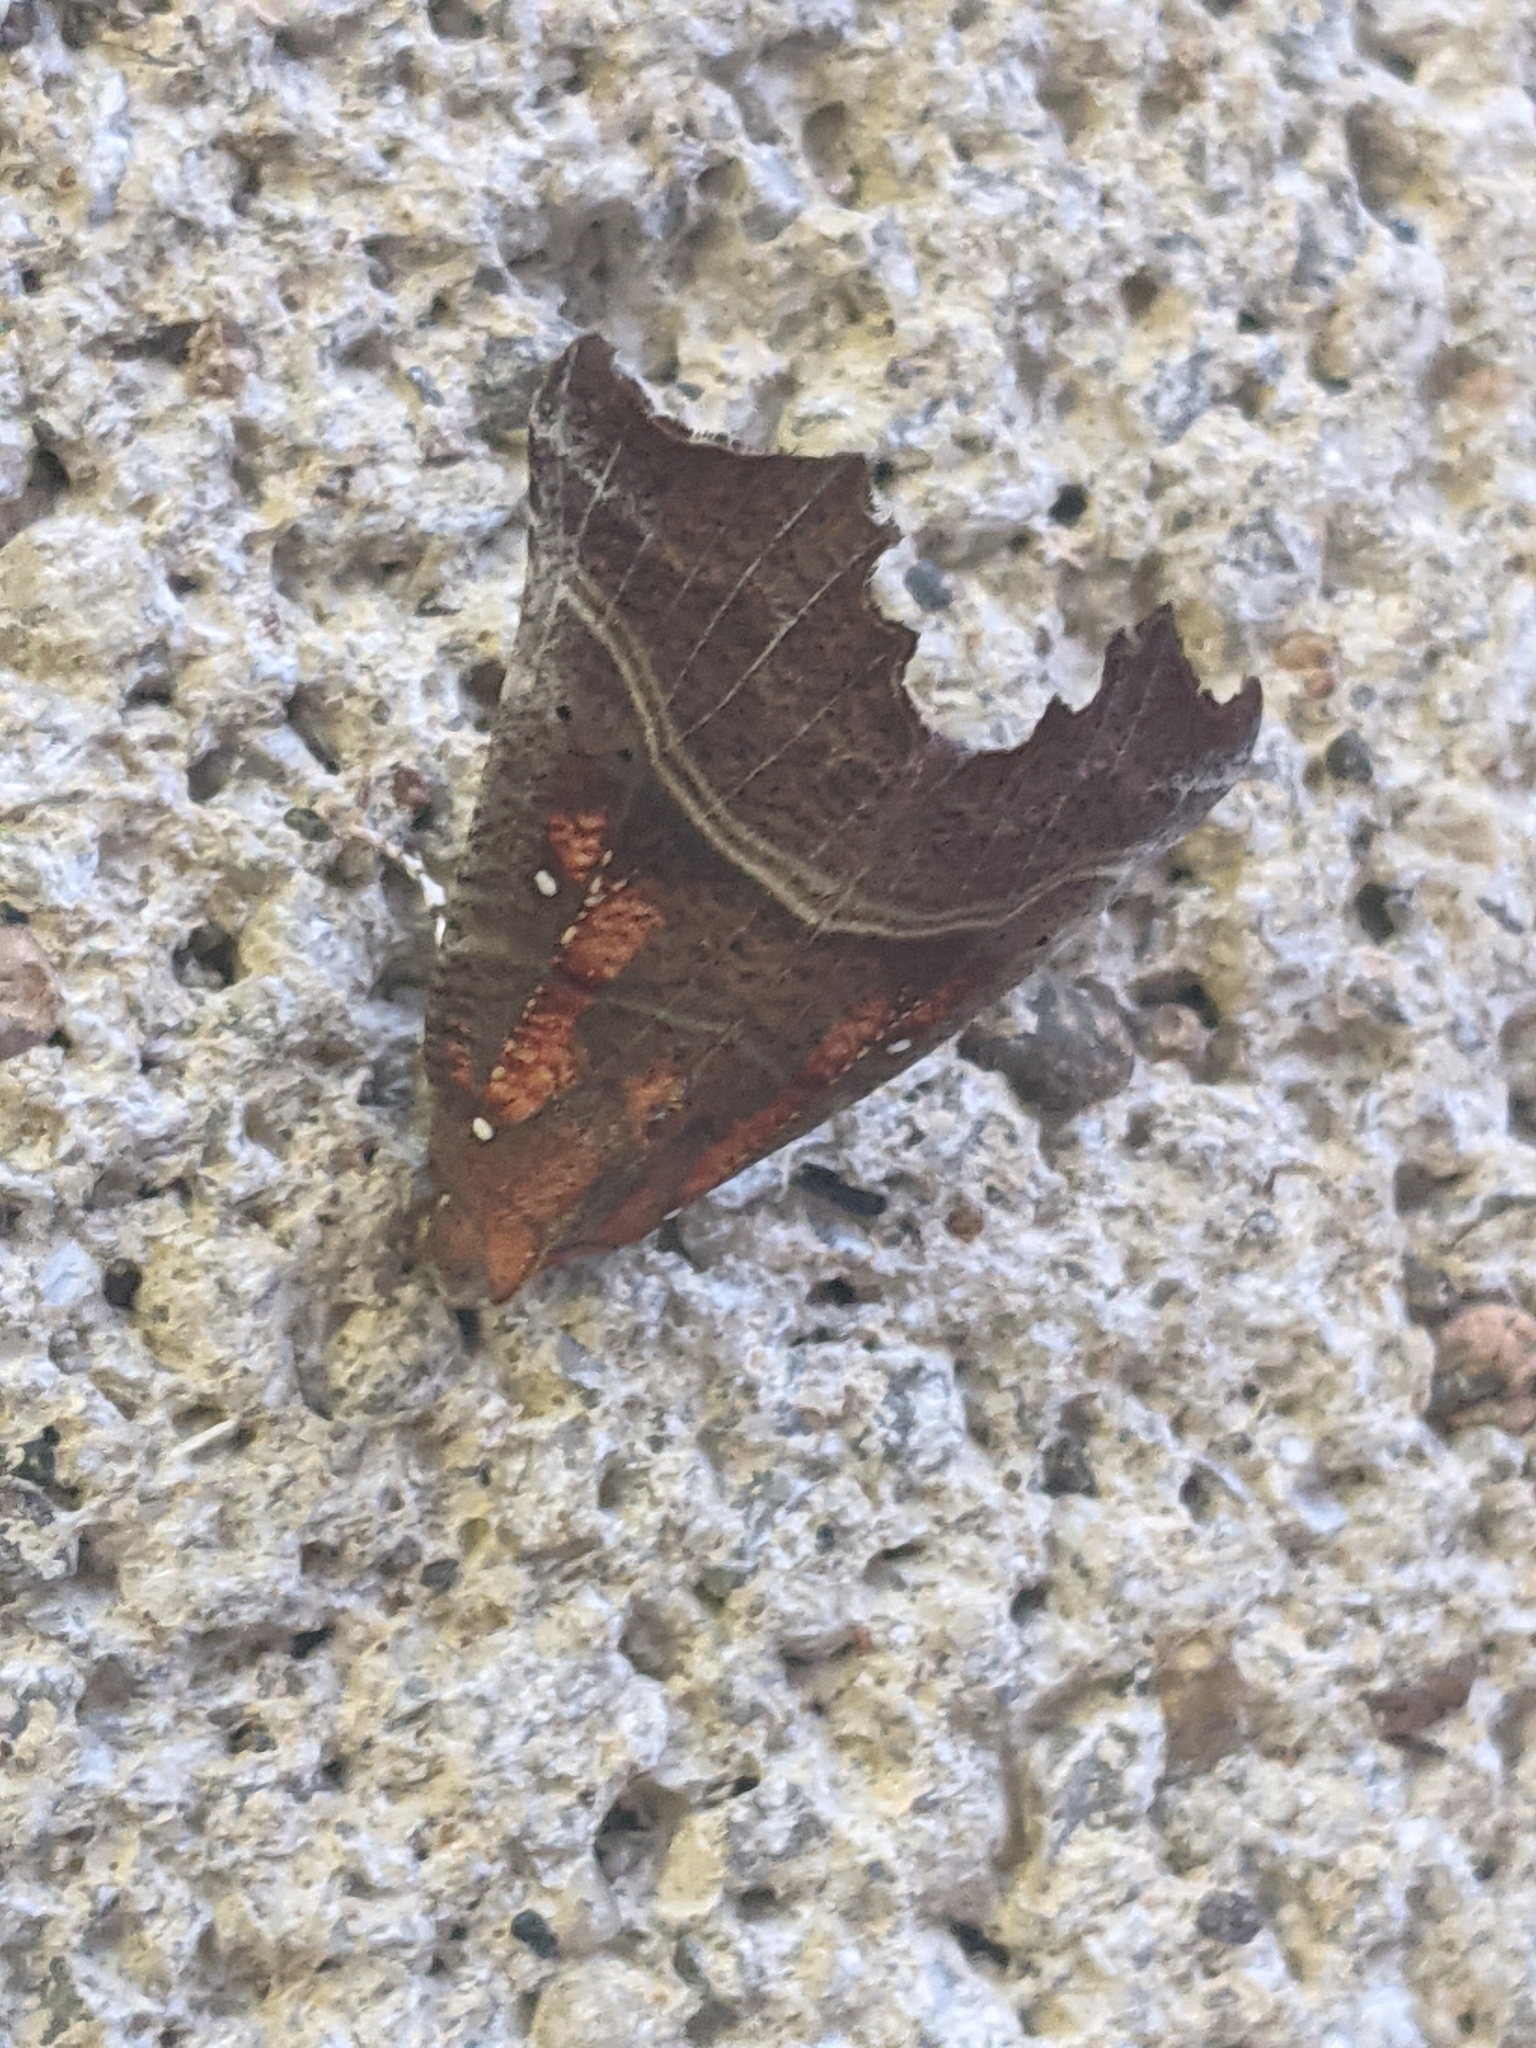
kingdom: Animalia
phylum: Arthropoda
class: Insecta
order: Lepidoptera
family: Erebidae
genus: Scoliopteryx
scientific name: Scoliopteryx libatrix
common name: Herald
